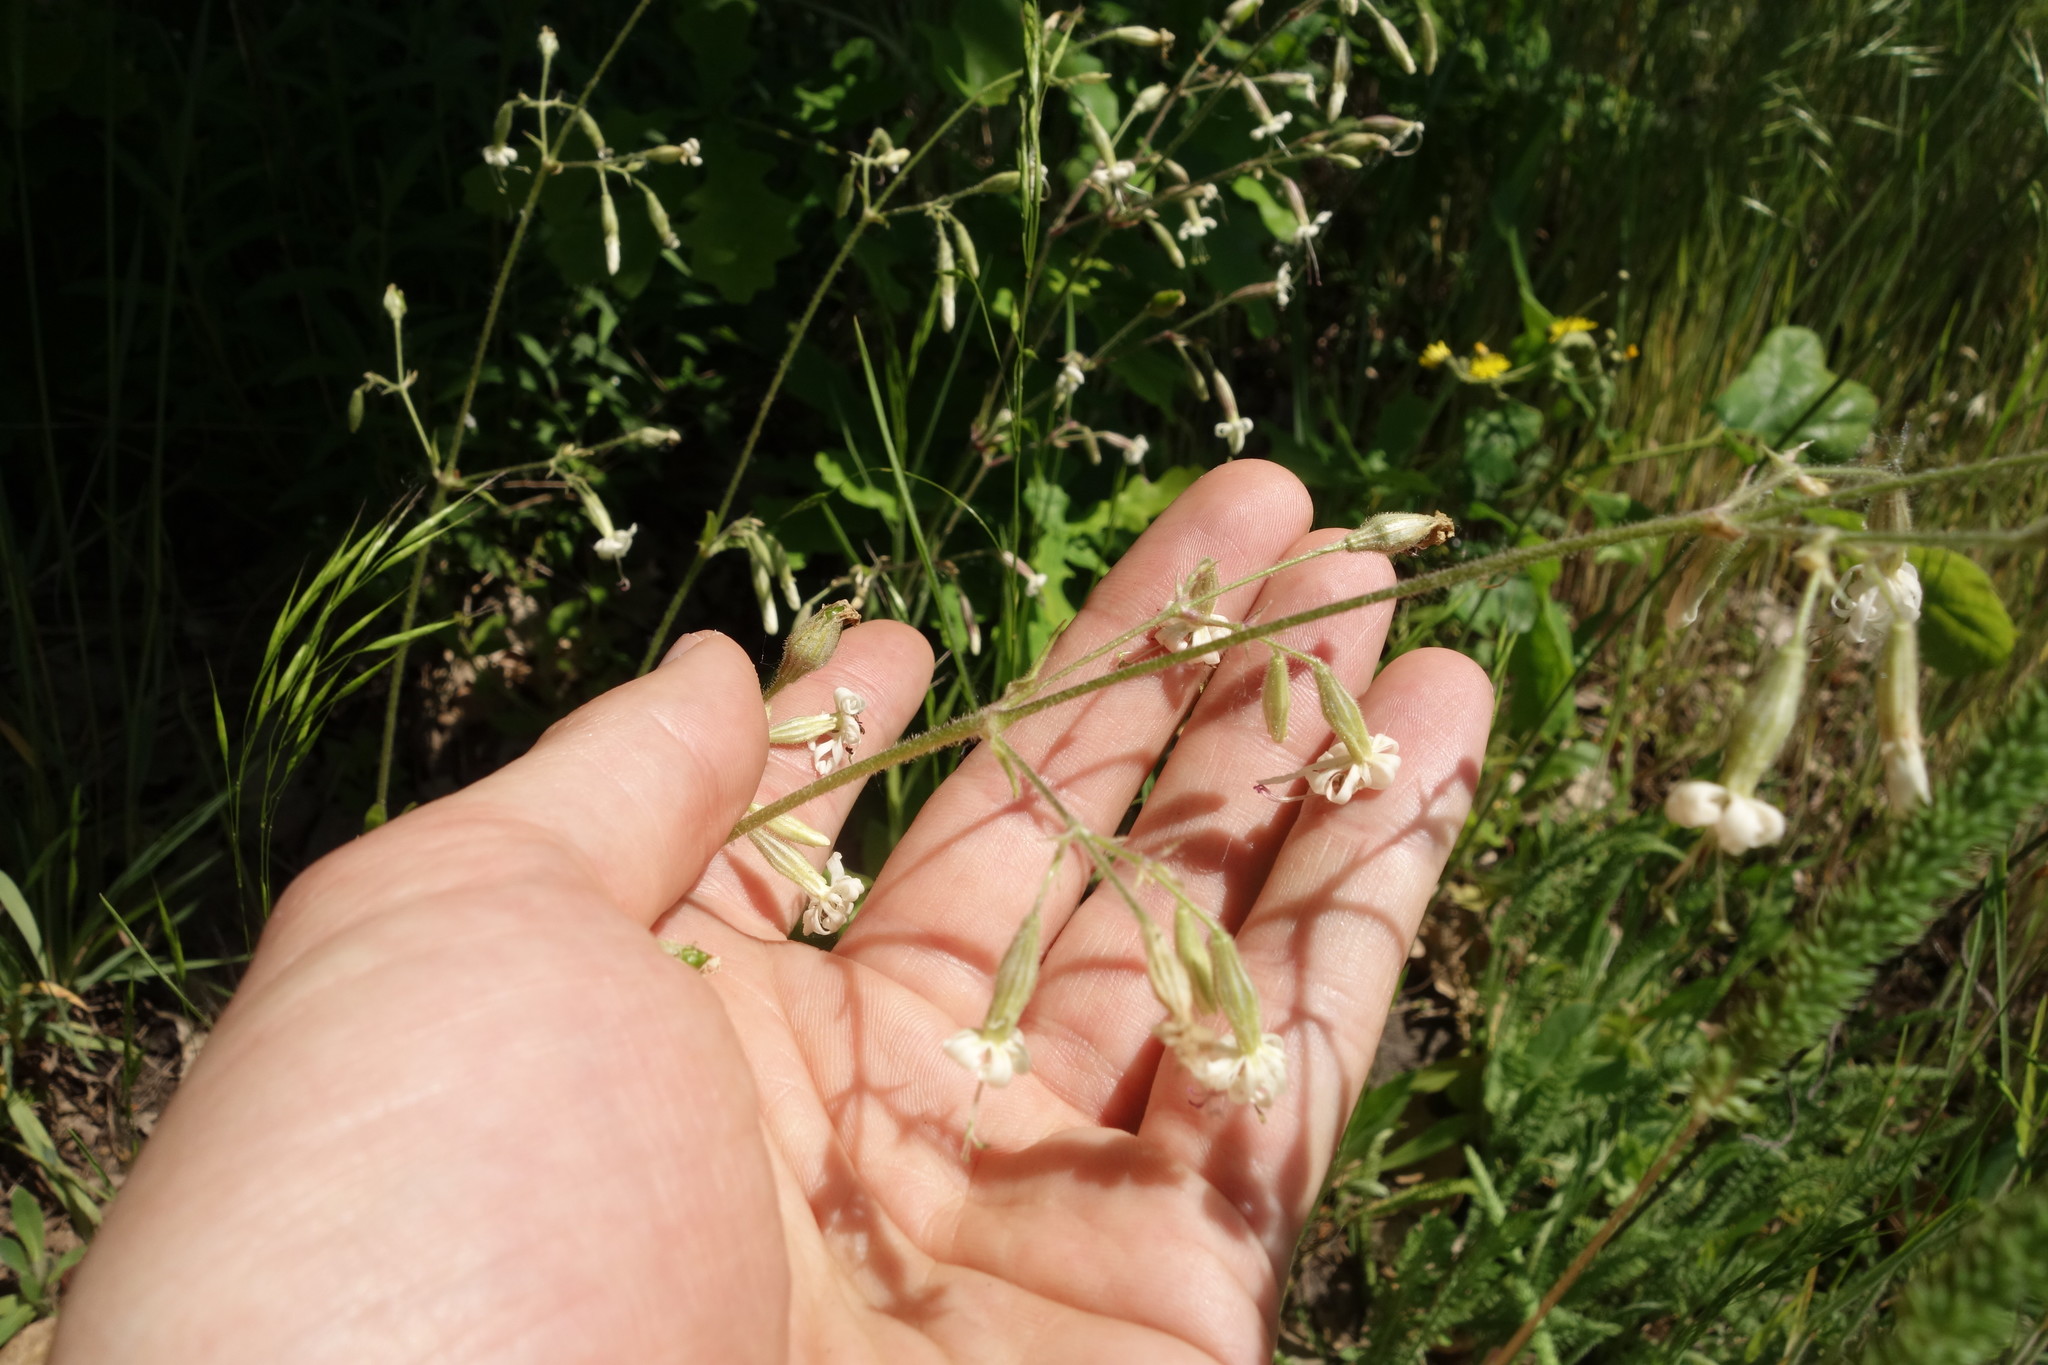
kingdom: Plantae
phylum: Tracheophyta
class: Magnoliopsida
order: Caryophyllales
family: Caryophyllaceae
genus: Silene
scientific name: Silene nutans
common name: Nottingham catchfly
